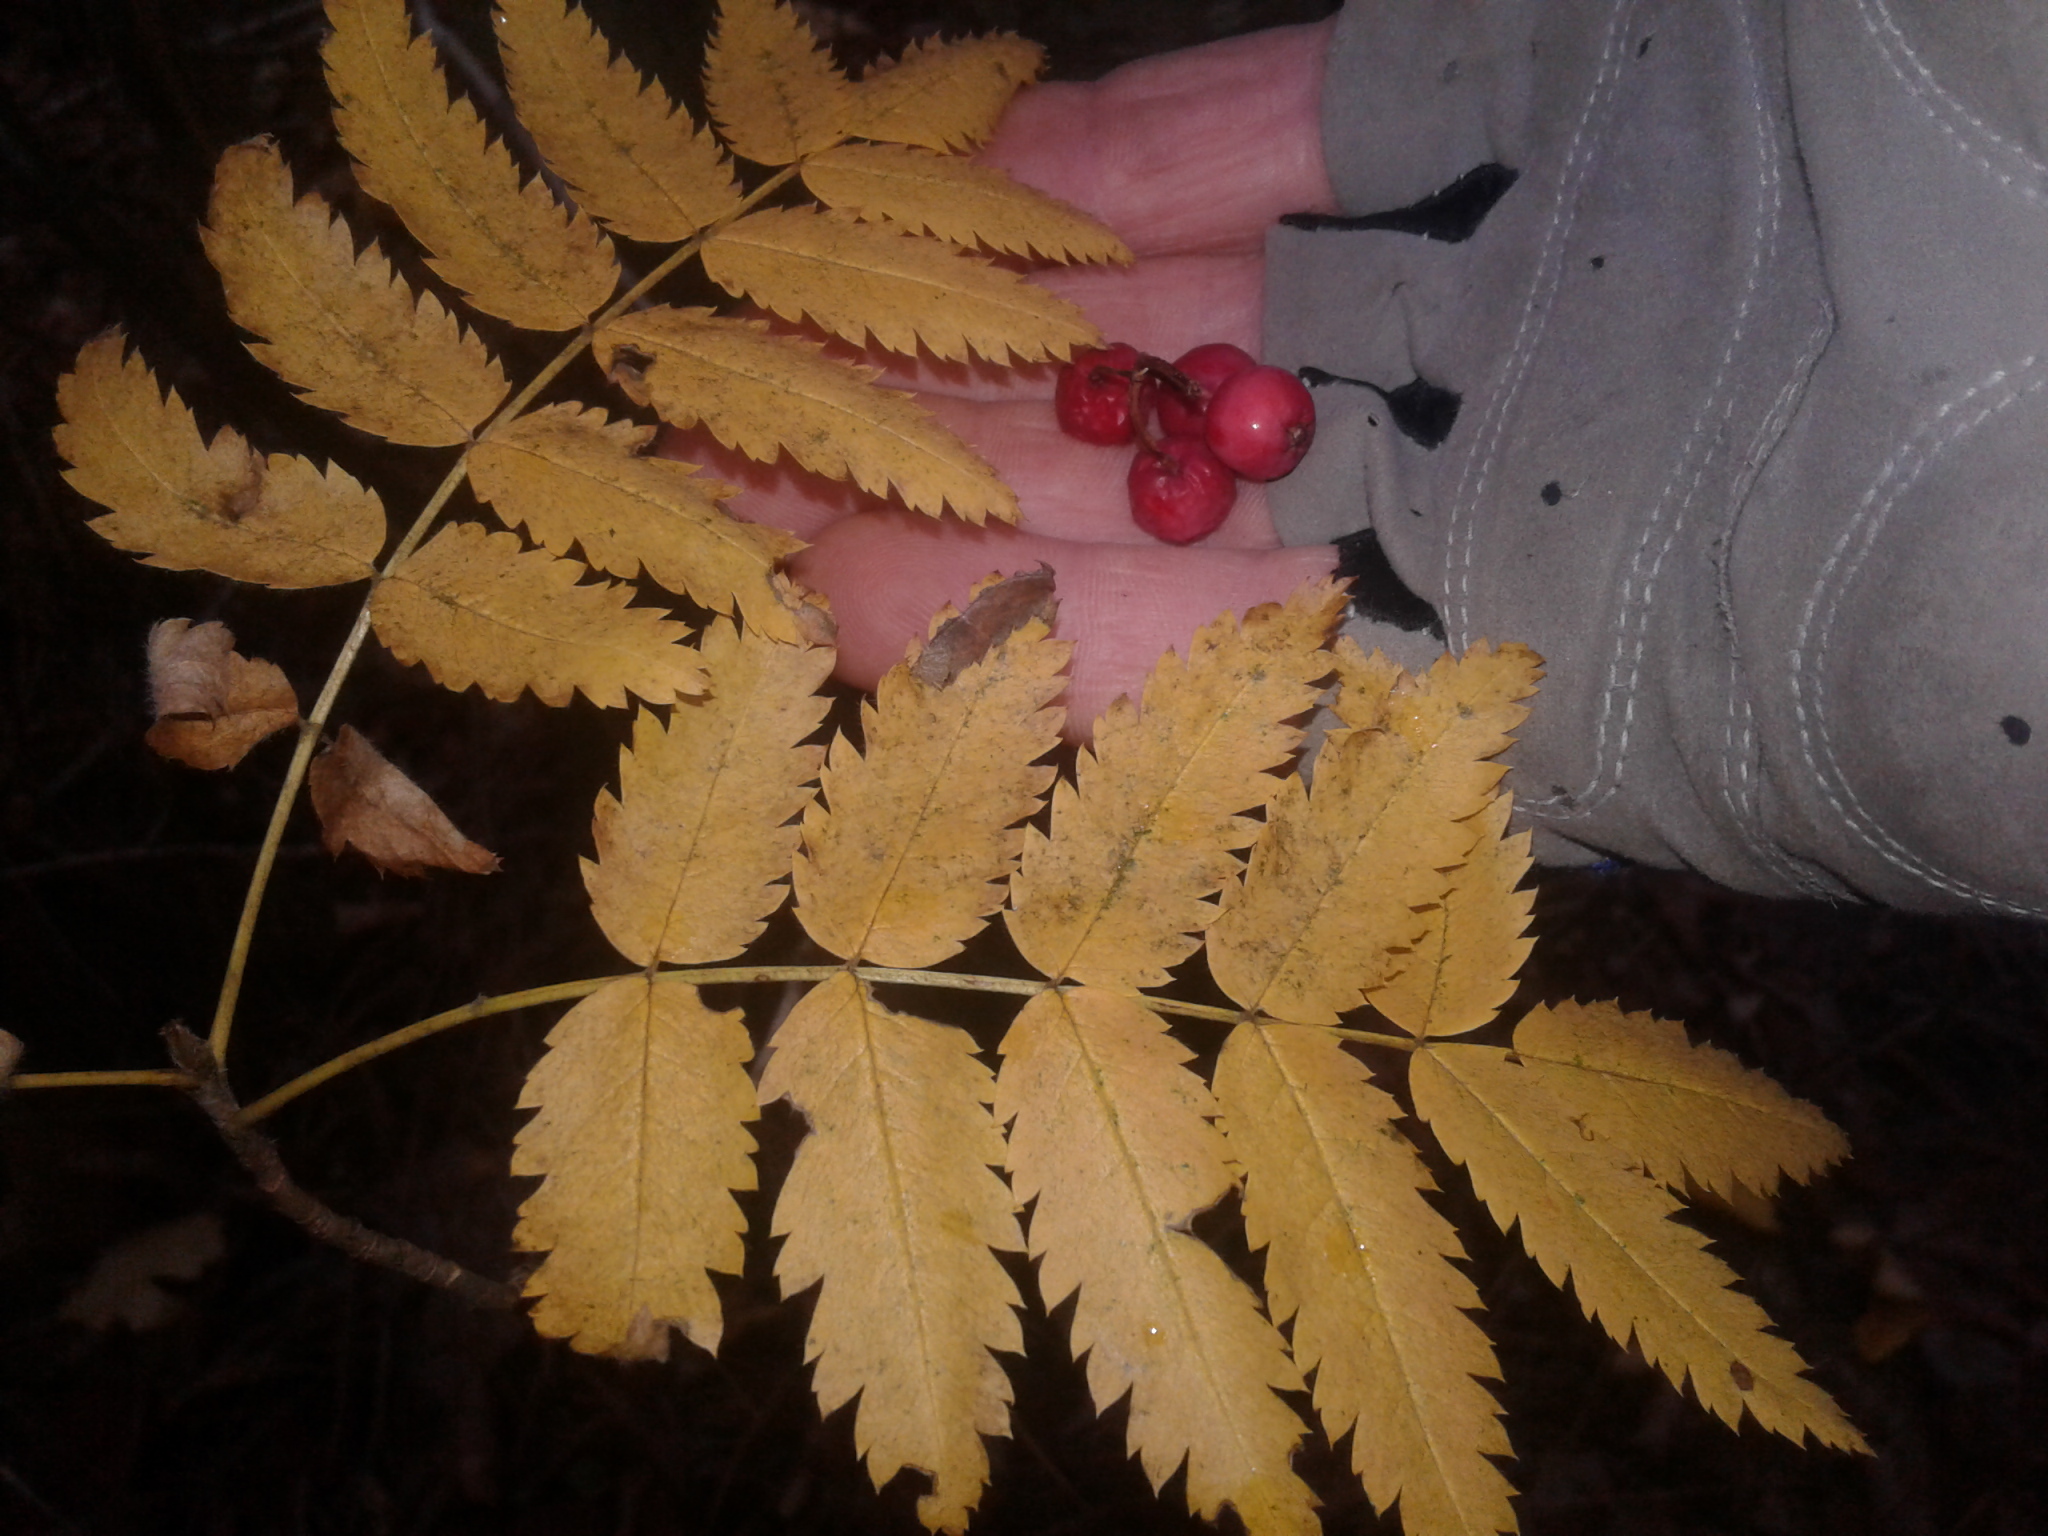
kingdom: Plantae
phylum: Tracheophyta
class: Magnoliopsida
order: Rosales
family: Rosaceae
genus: Sorbus
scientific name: Sorbus aucuparia
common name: Rowan
